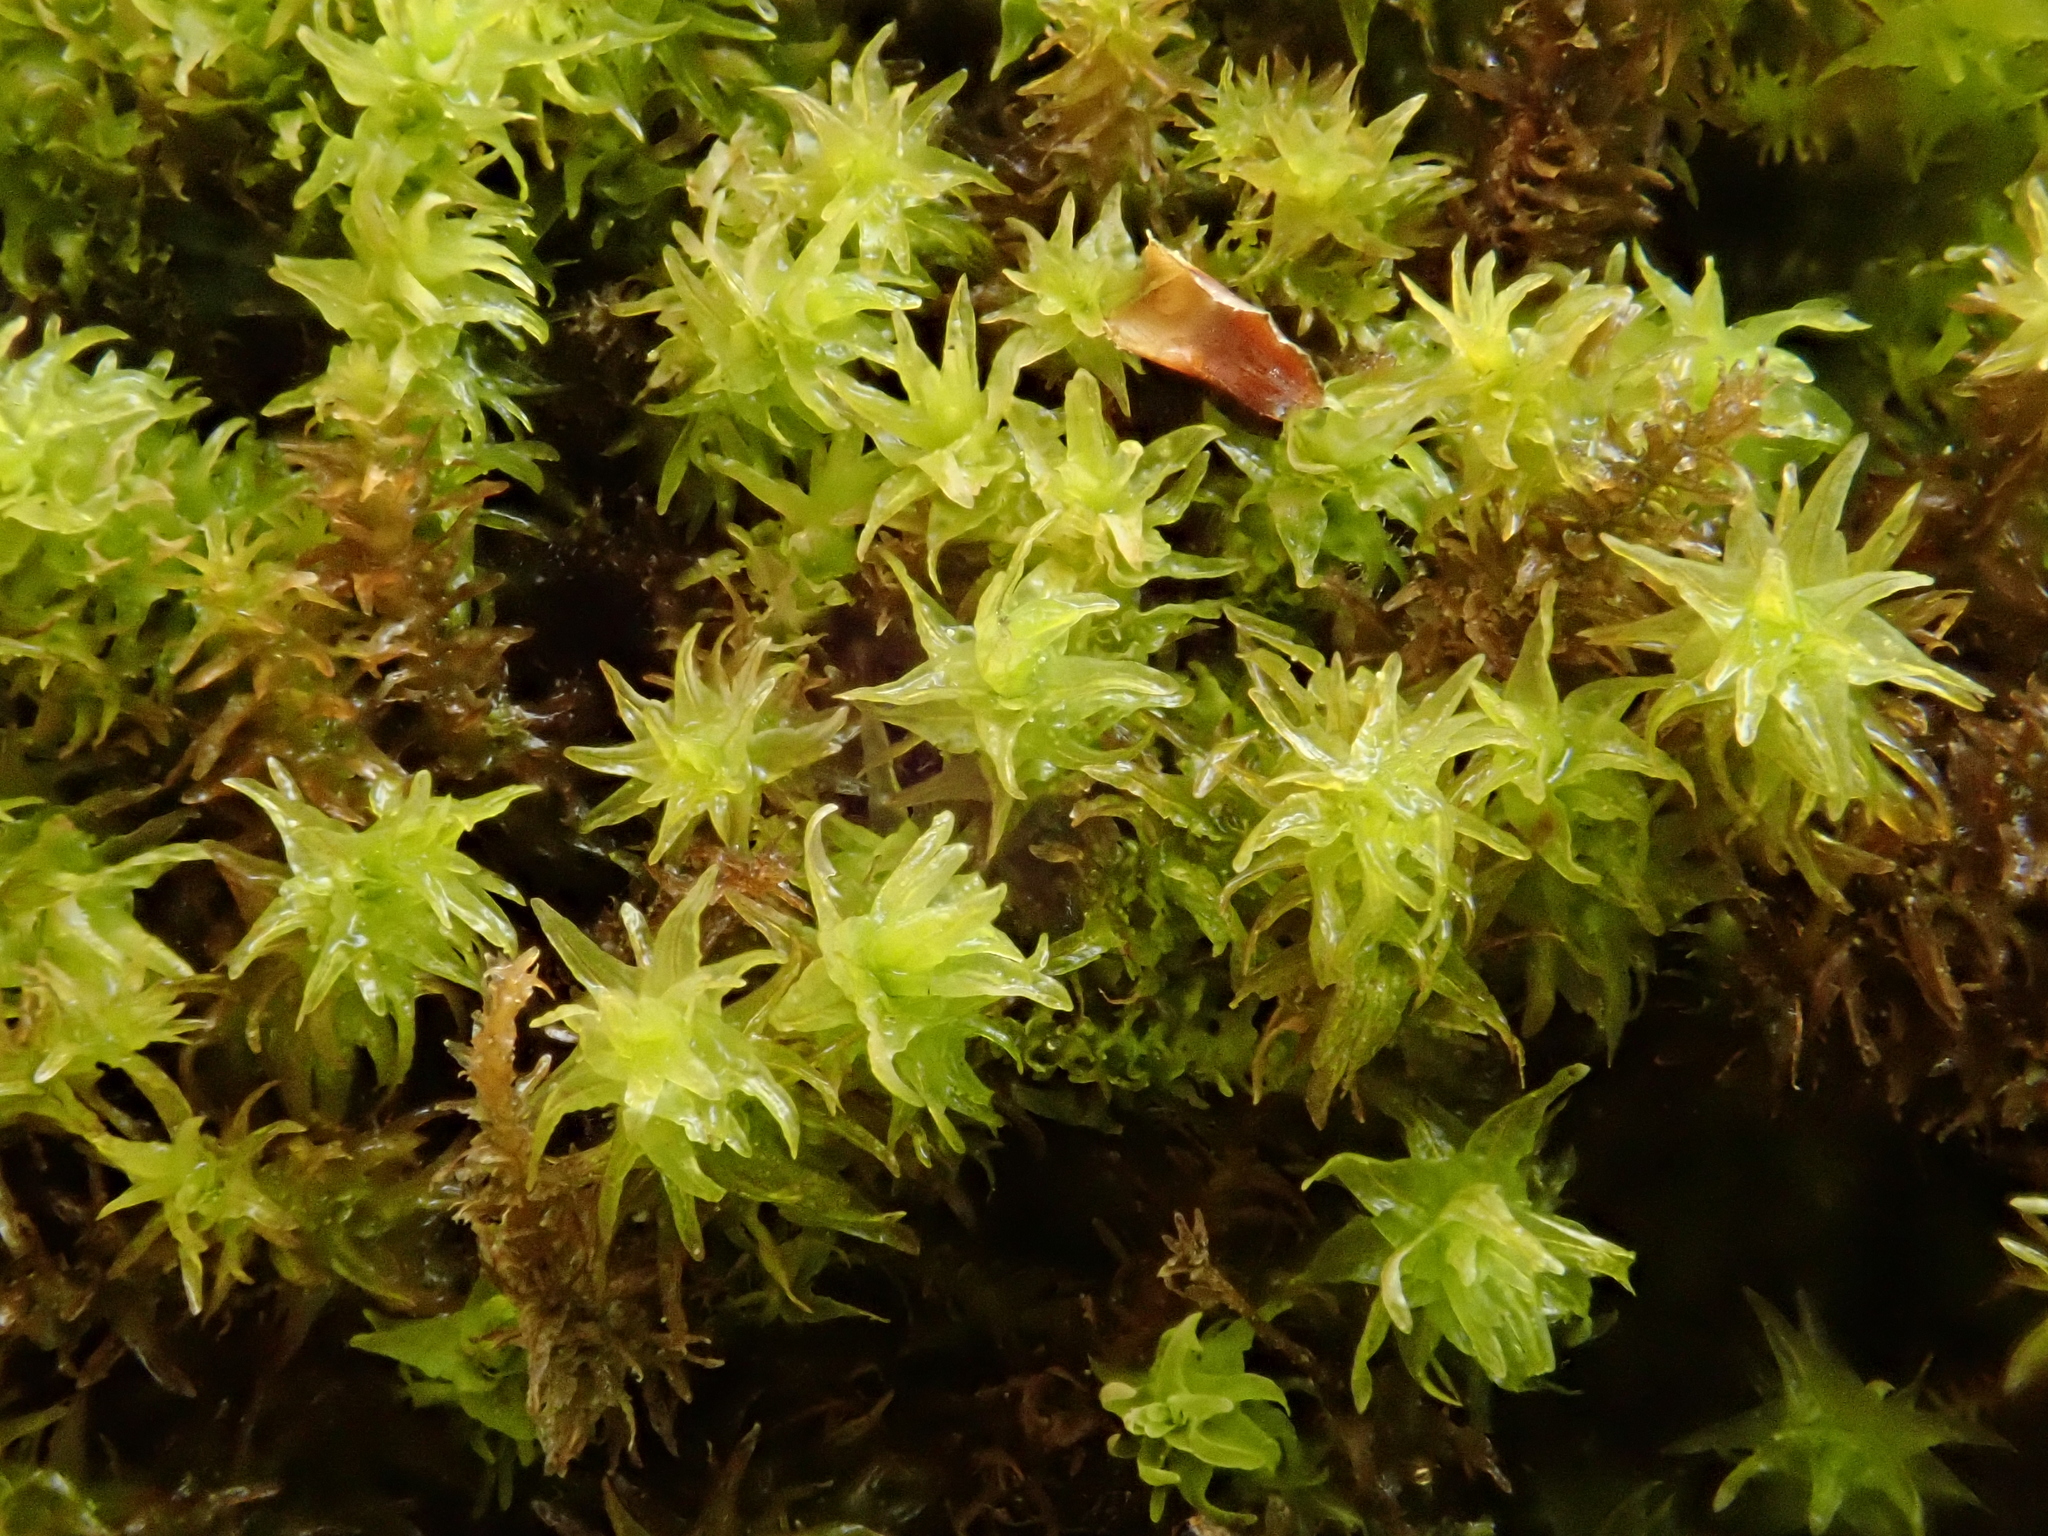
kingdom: Plantae
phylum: Bryophyta
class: Bryopsida
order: Hypnales
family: Anomodontaceae
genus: Anomodon
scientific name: Anomodon viticulosus
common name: Tall anomodon
